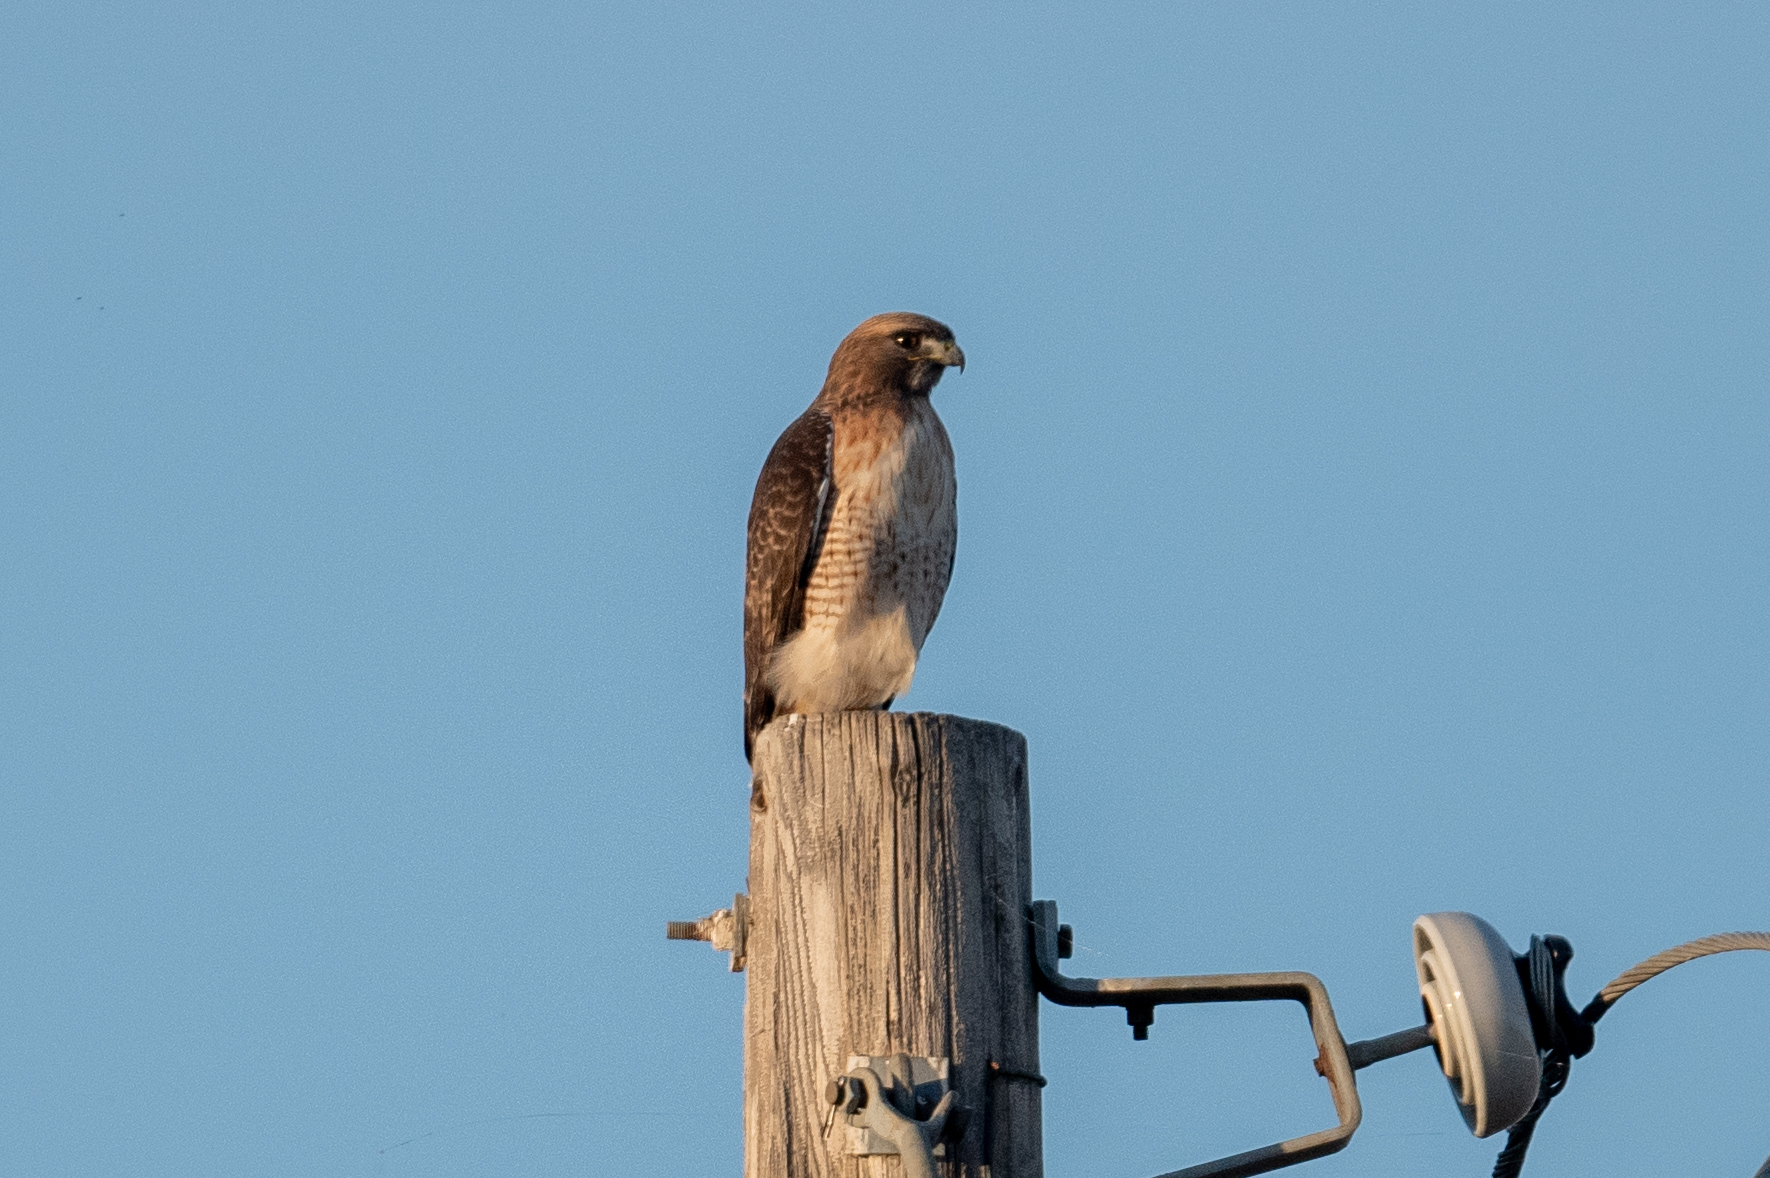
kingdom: Animalia
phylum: Chordata
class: Aves
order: Accipitriformes
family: Accipitridae
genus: Buteo
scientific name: Buteo jamaicensis
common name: Red-tailed hawk
